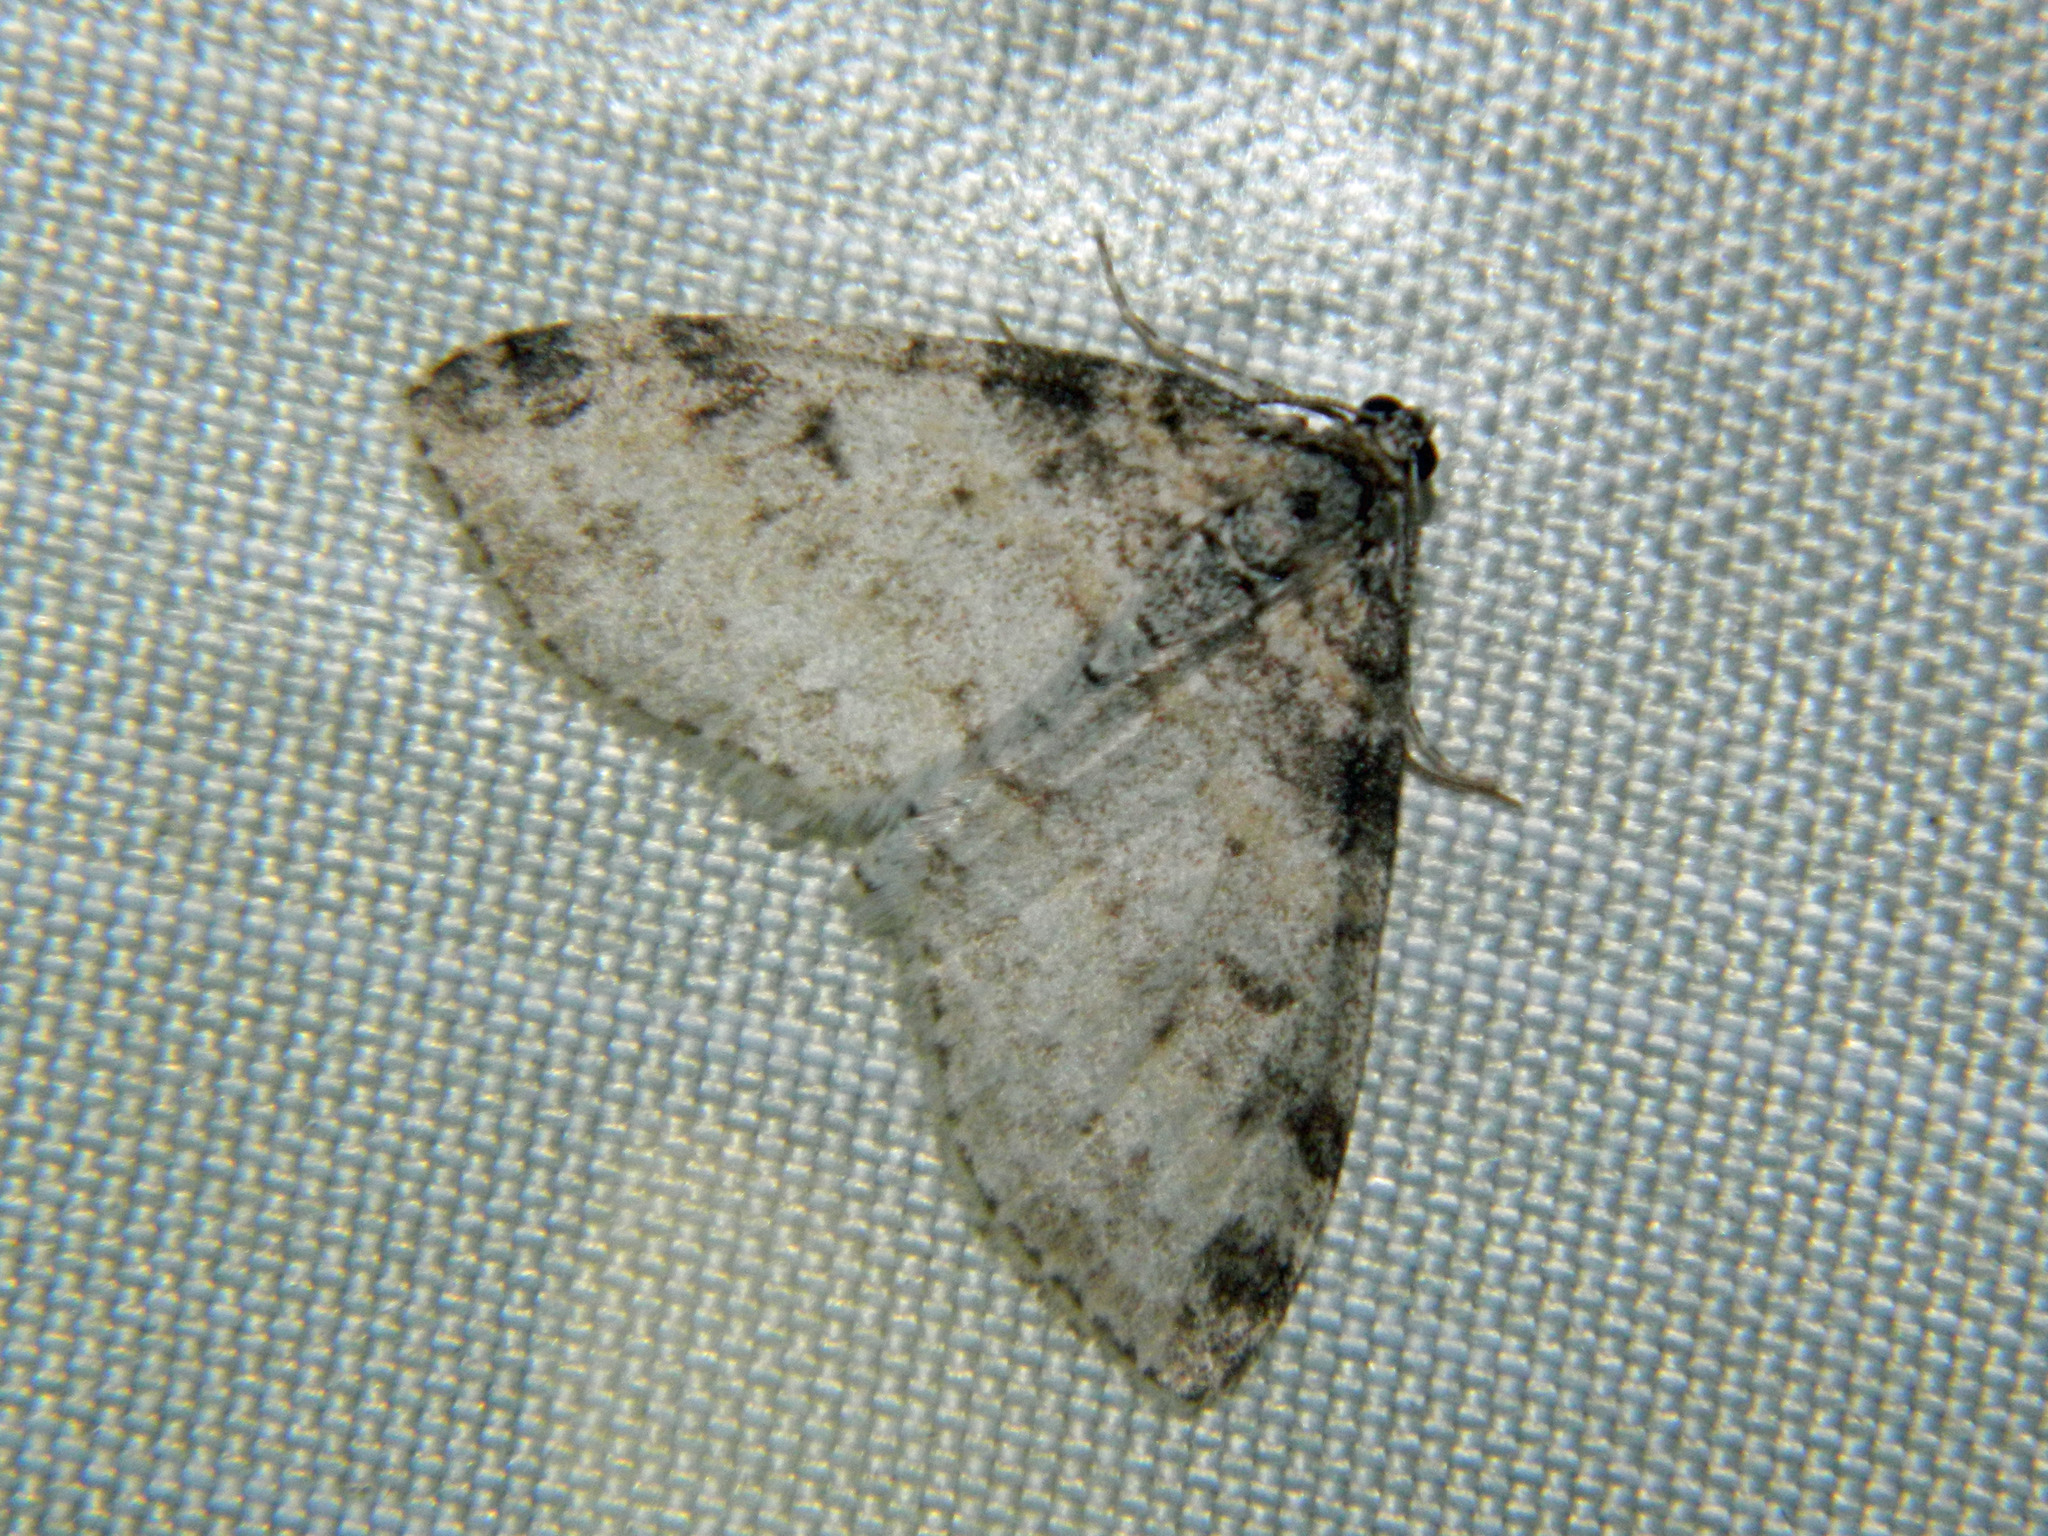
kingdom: Animalia
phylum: Arthropoda
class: Insecta
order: Lepidoptera
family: Geometridae
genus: Lobophora
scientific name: Lobophora nivigerata
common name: Powdered bigwing
